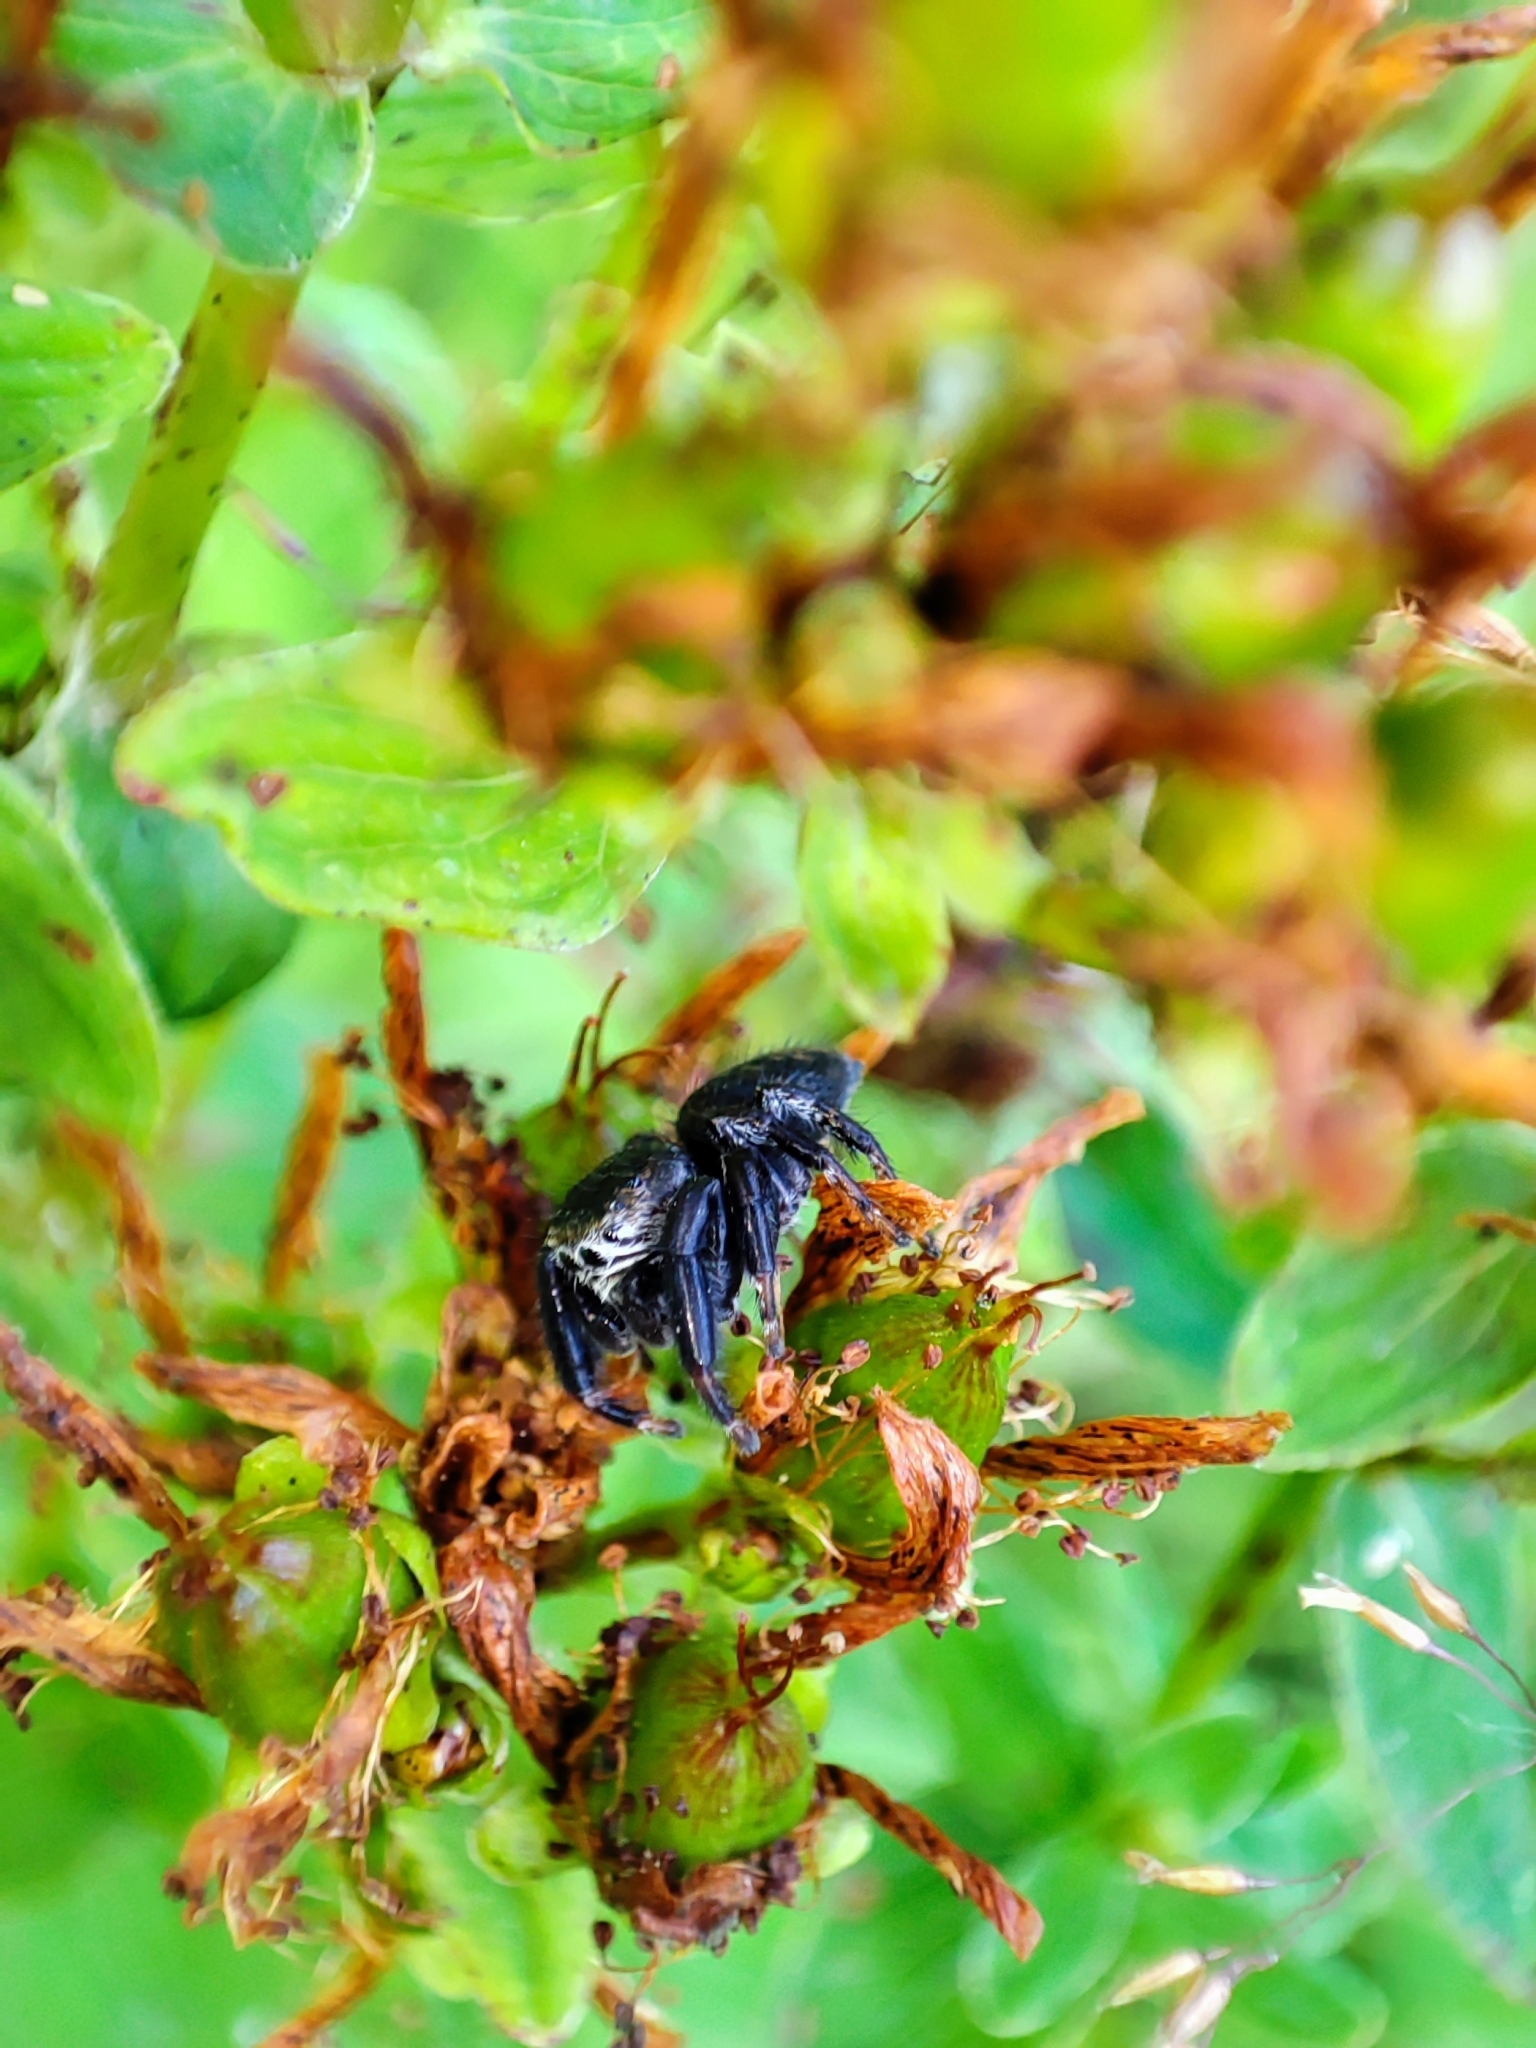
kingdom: Animalia
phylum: Arthropoda
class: Arachnida
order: Araneae
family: Salticidae
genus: Evarcha
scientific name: Evarcha arcuata
